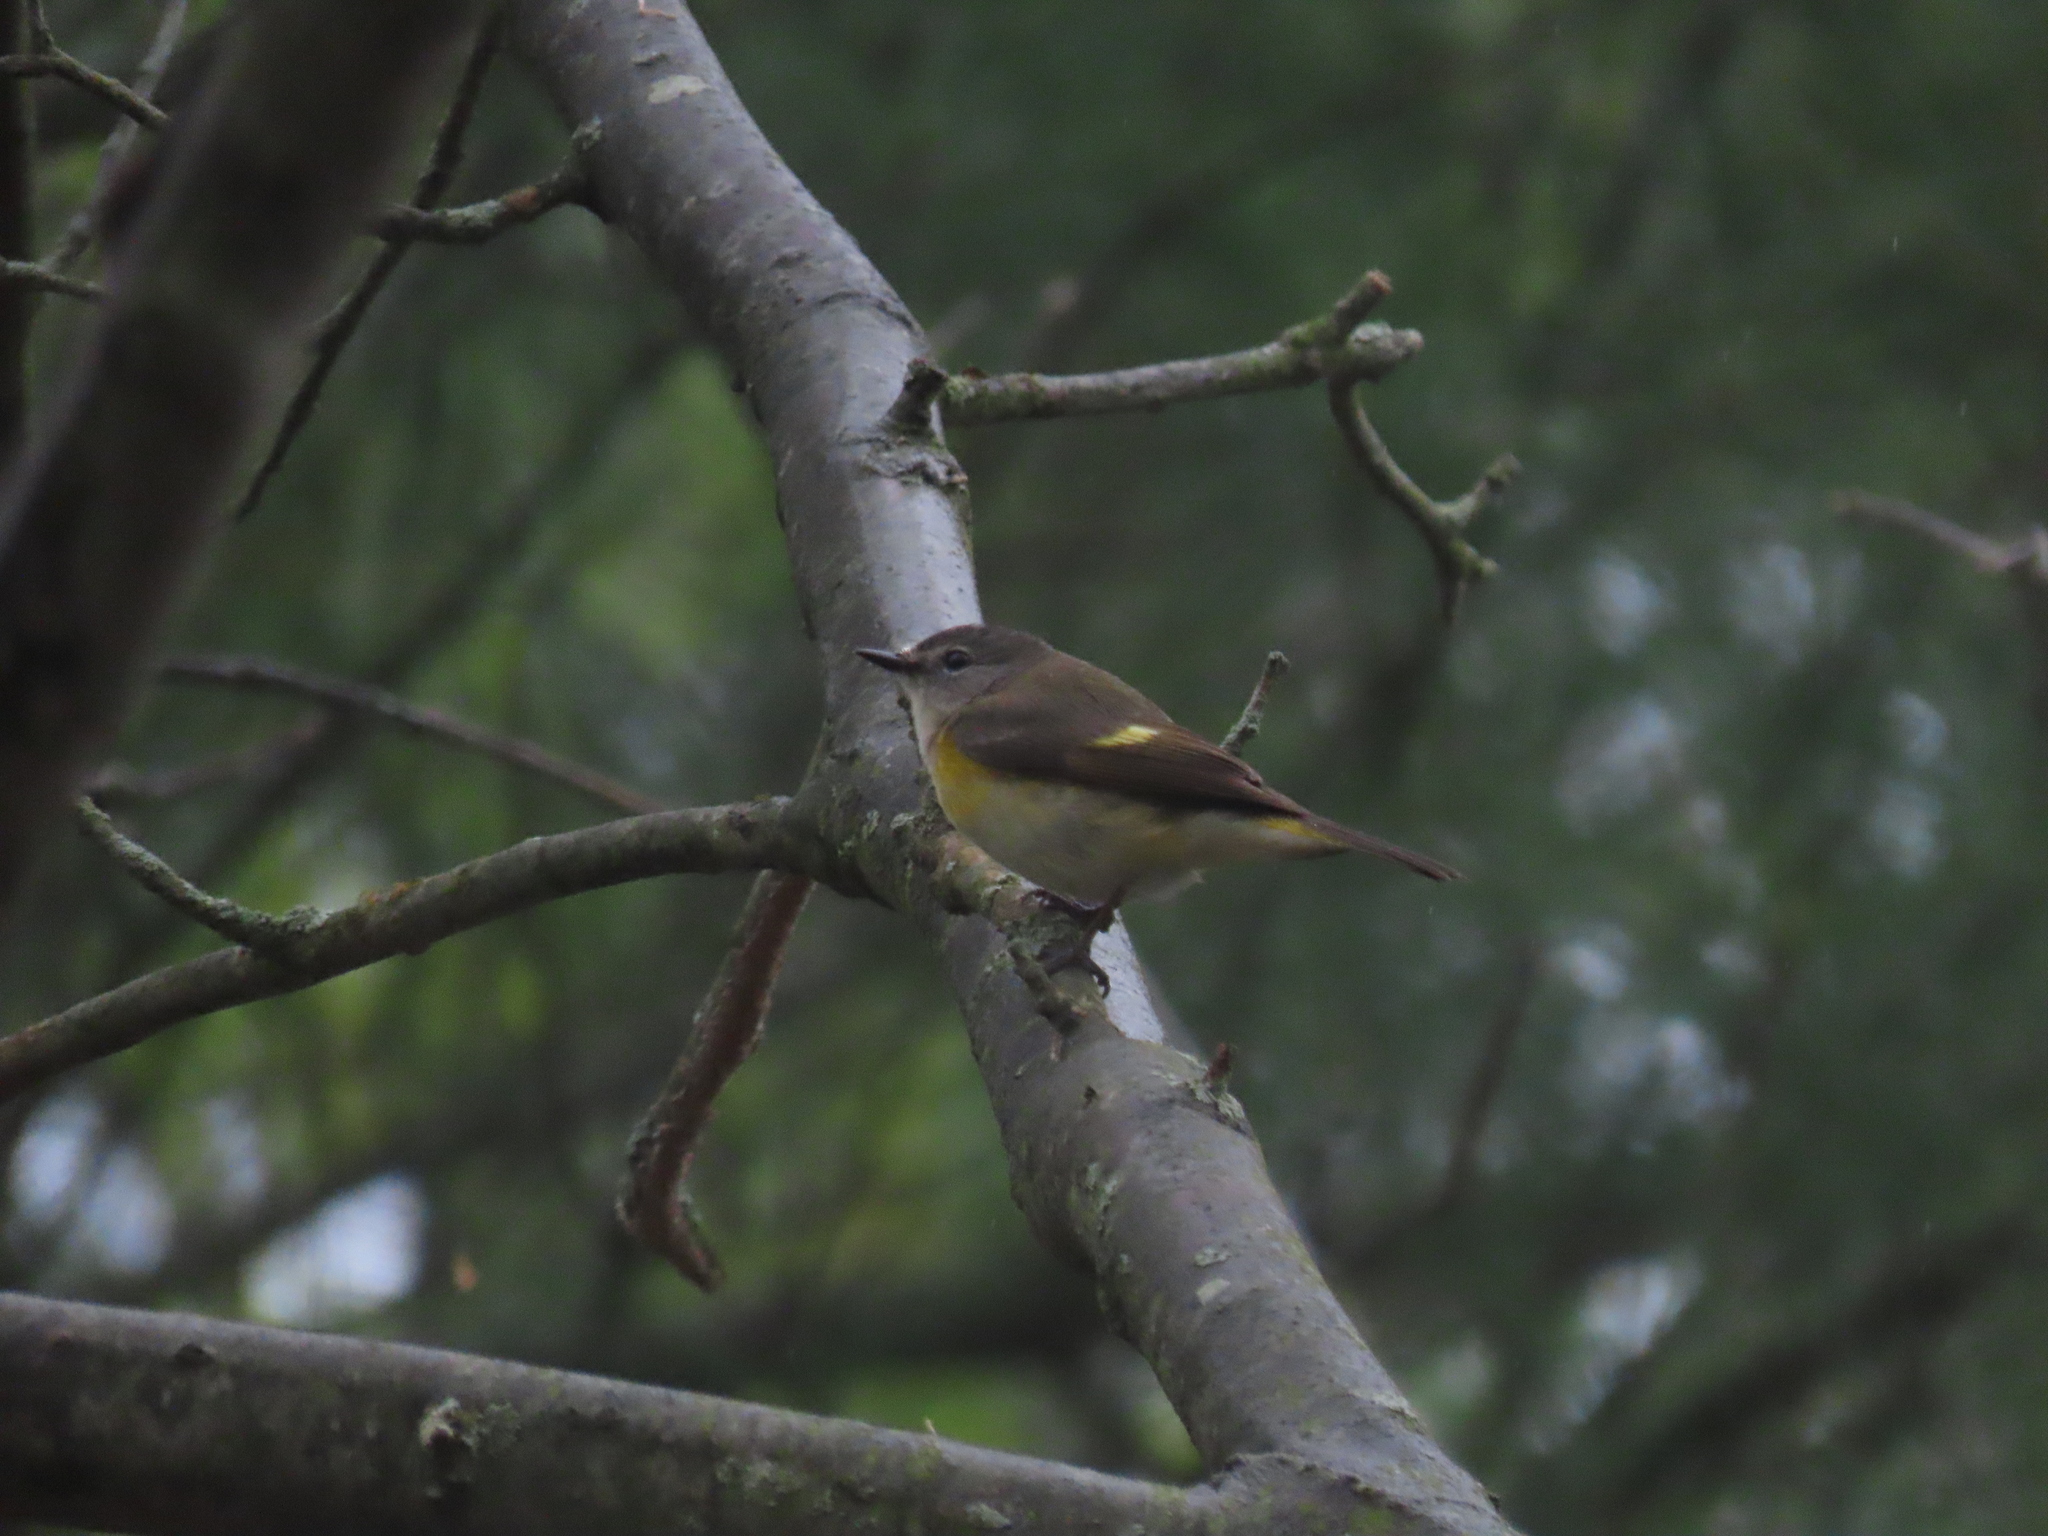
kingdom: Animalia
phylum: Chordata
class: Aves
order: Passeriformes
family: Parulidae
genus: Setophaga
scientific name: Setophaga ruticilla
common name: American redstart
